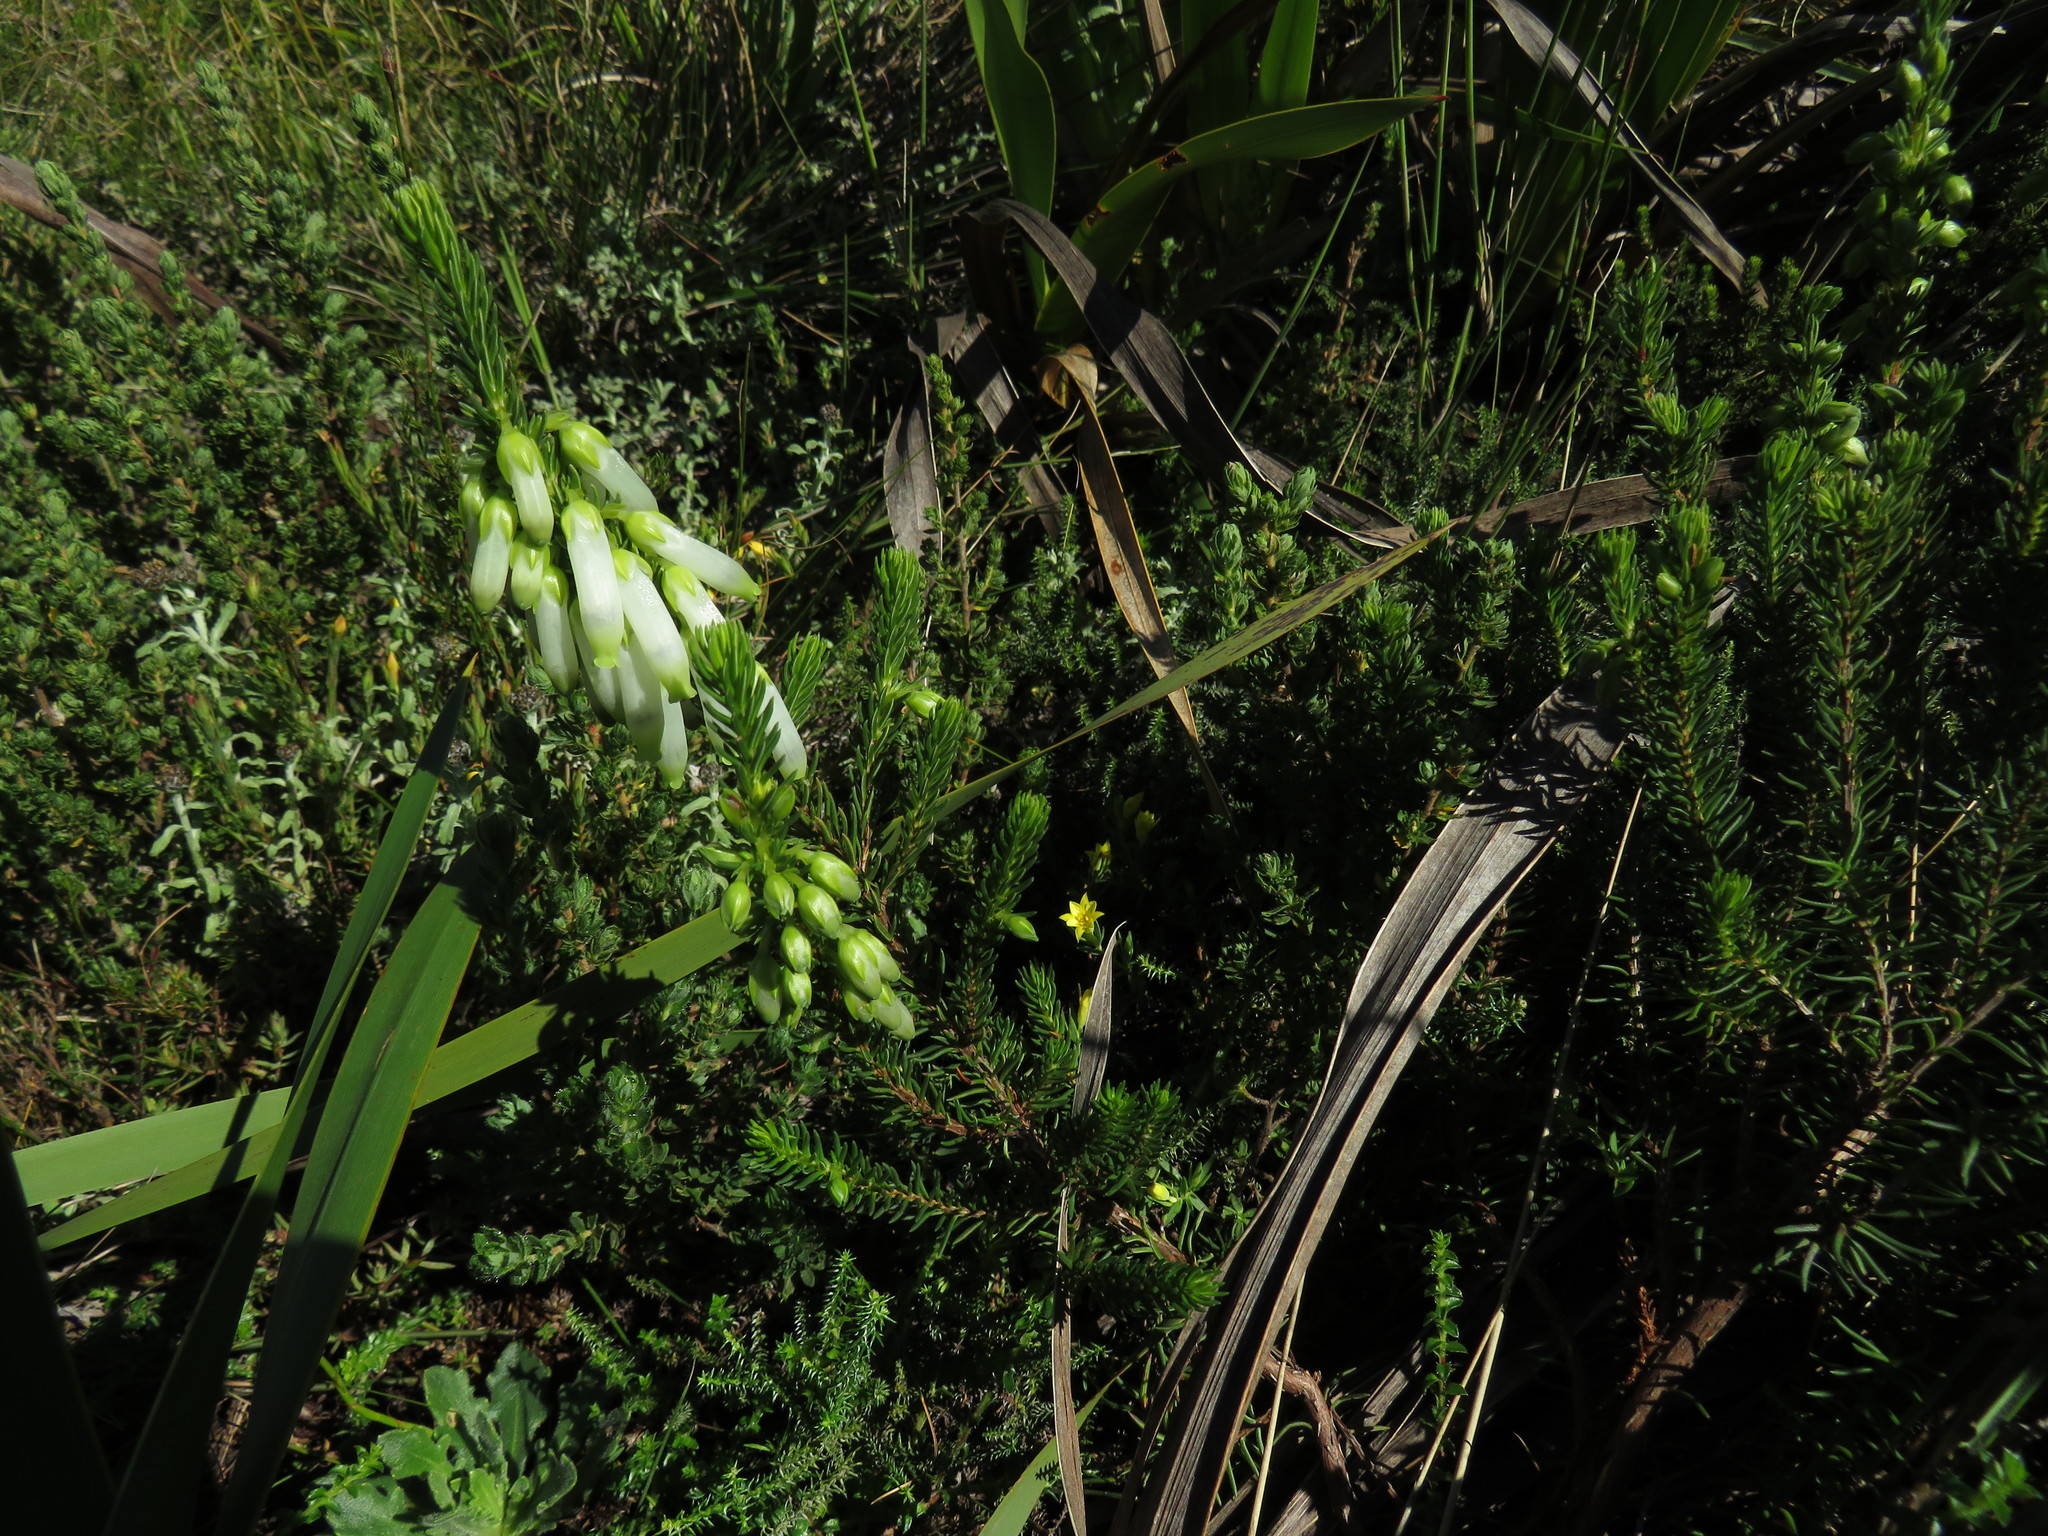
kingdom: Plantae
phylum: Tracheophyta
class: Magnoliopsida
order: Ericales
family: Ericaceae
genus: Erica
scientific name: Erica mammosa
